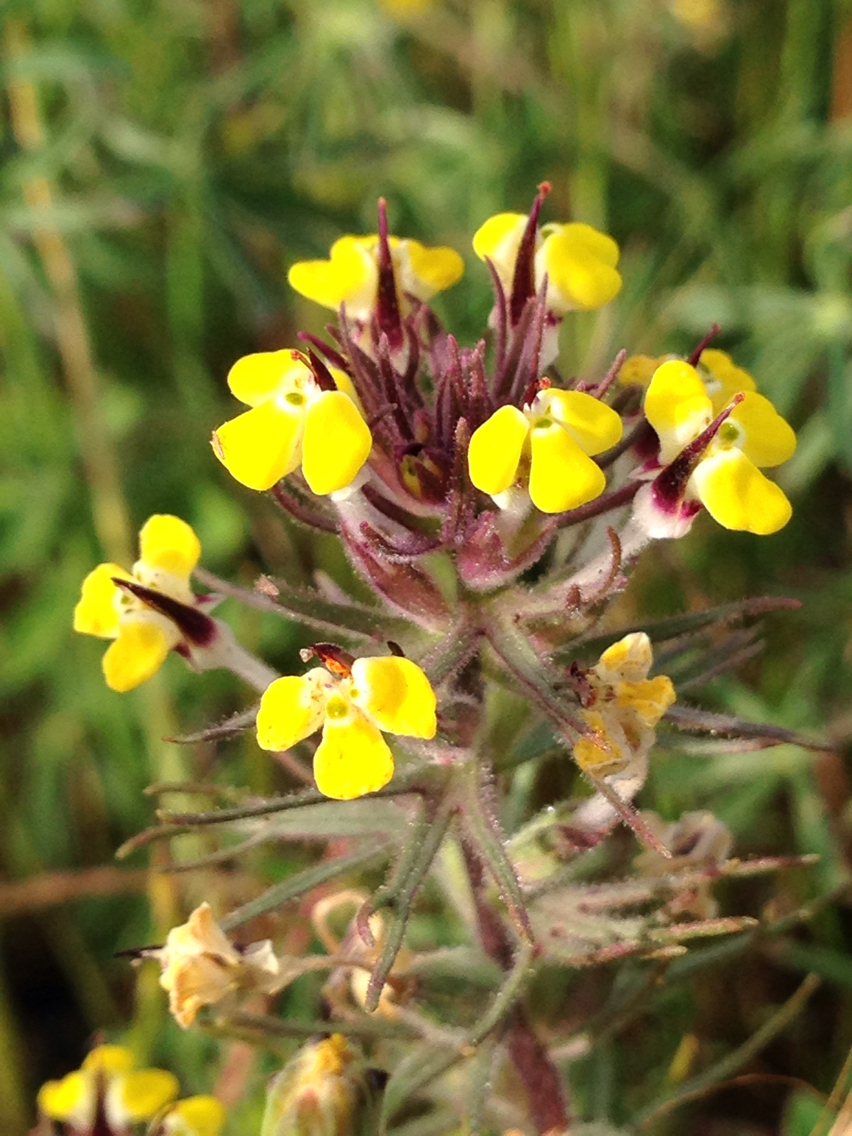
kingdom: Plantae
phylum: Tracheophyta
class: Magnoliopsida
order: Lamiales
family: Orobanchaceae
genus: Triphysaria
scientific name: Triphysaria eriantha
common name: Johnny-tuck
